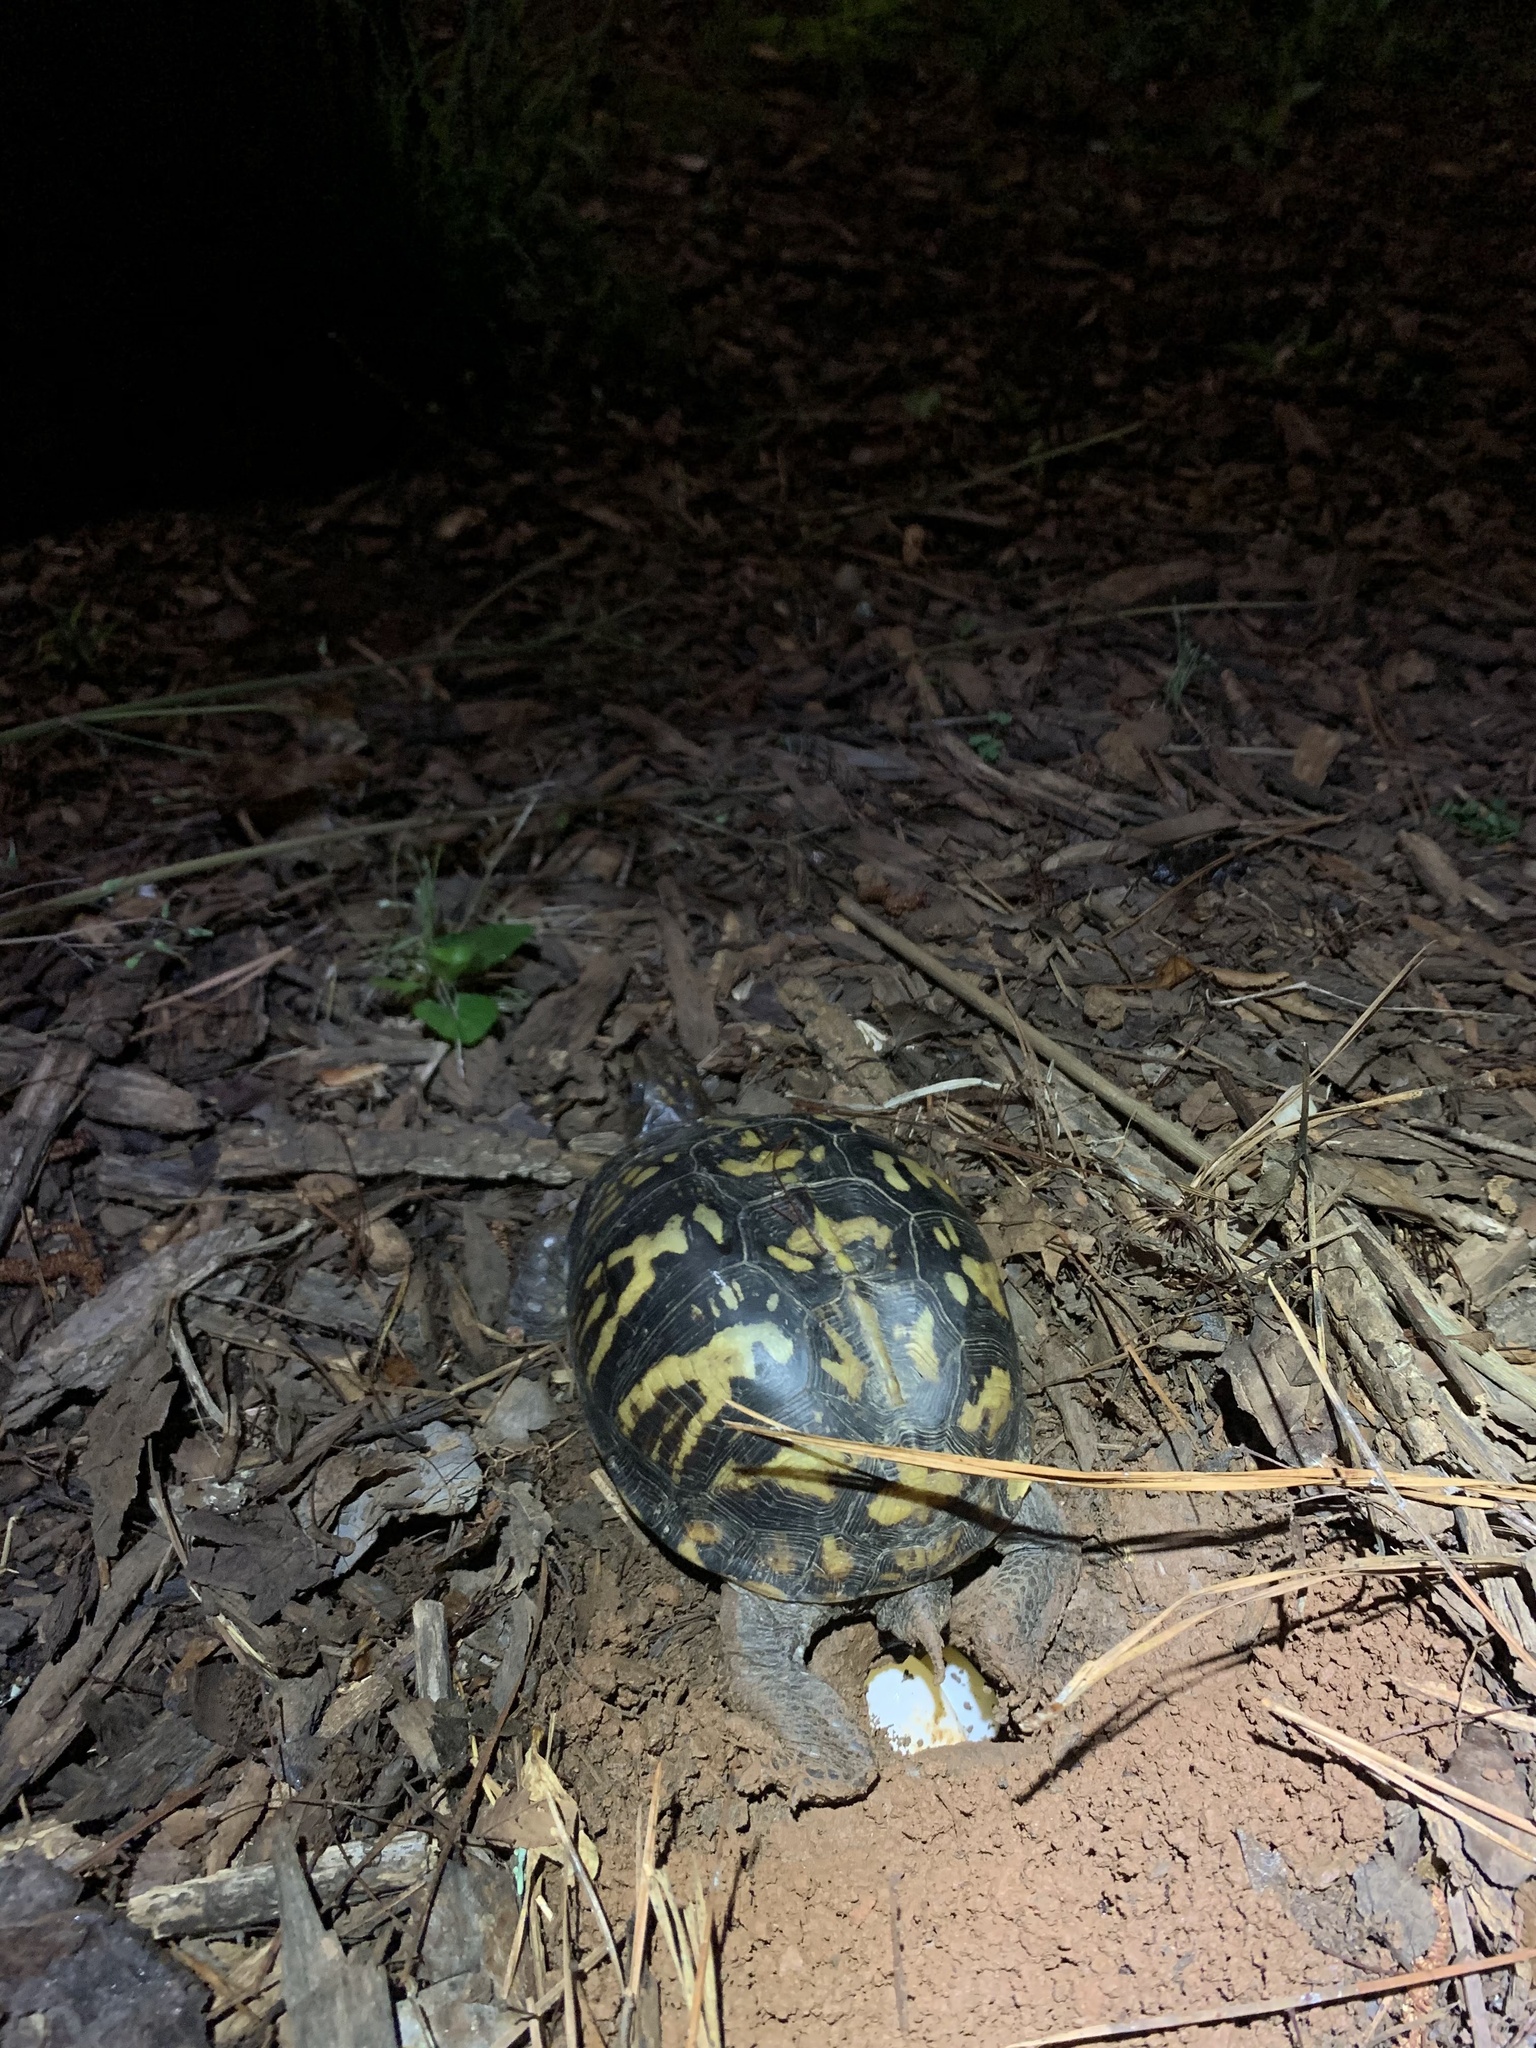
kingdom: Animalia
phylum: Chordata
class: Testudines
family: Emydidae
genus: Terrapene
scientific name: Terrapene carolina
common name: Common box turtle
